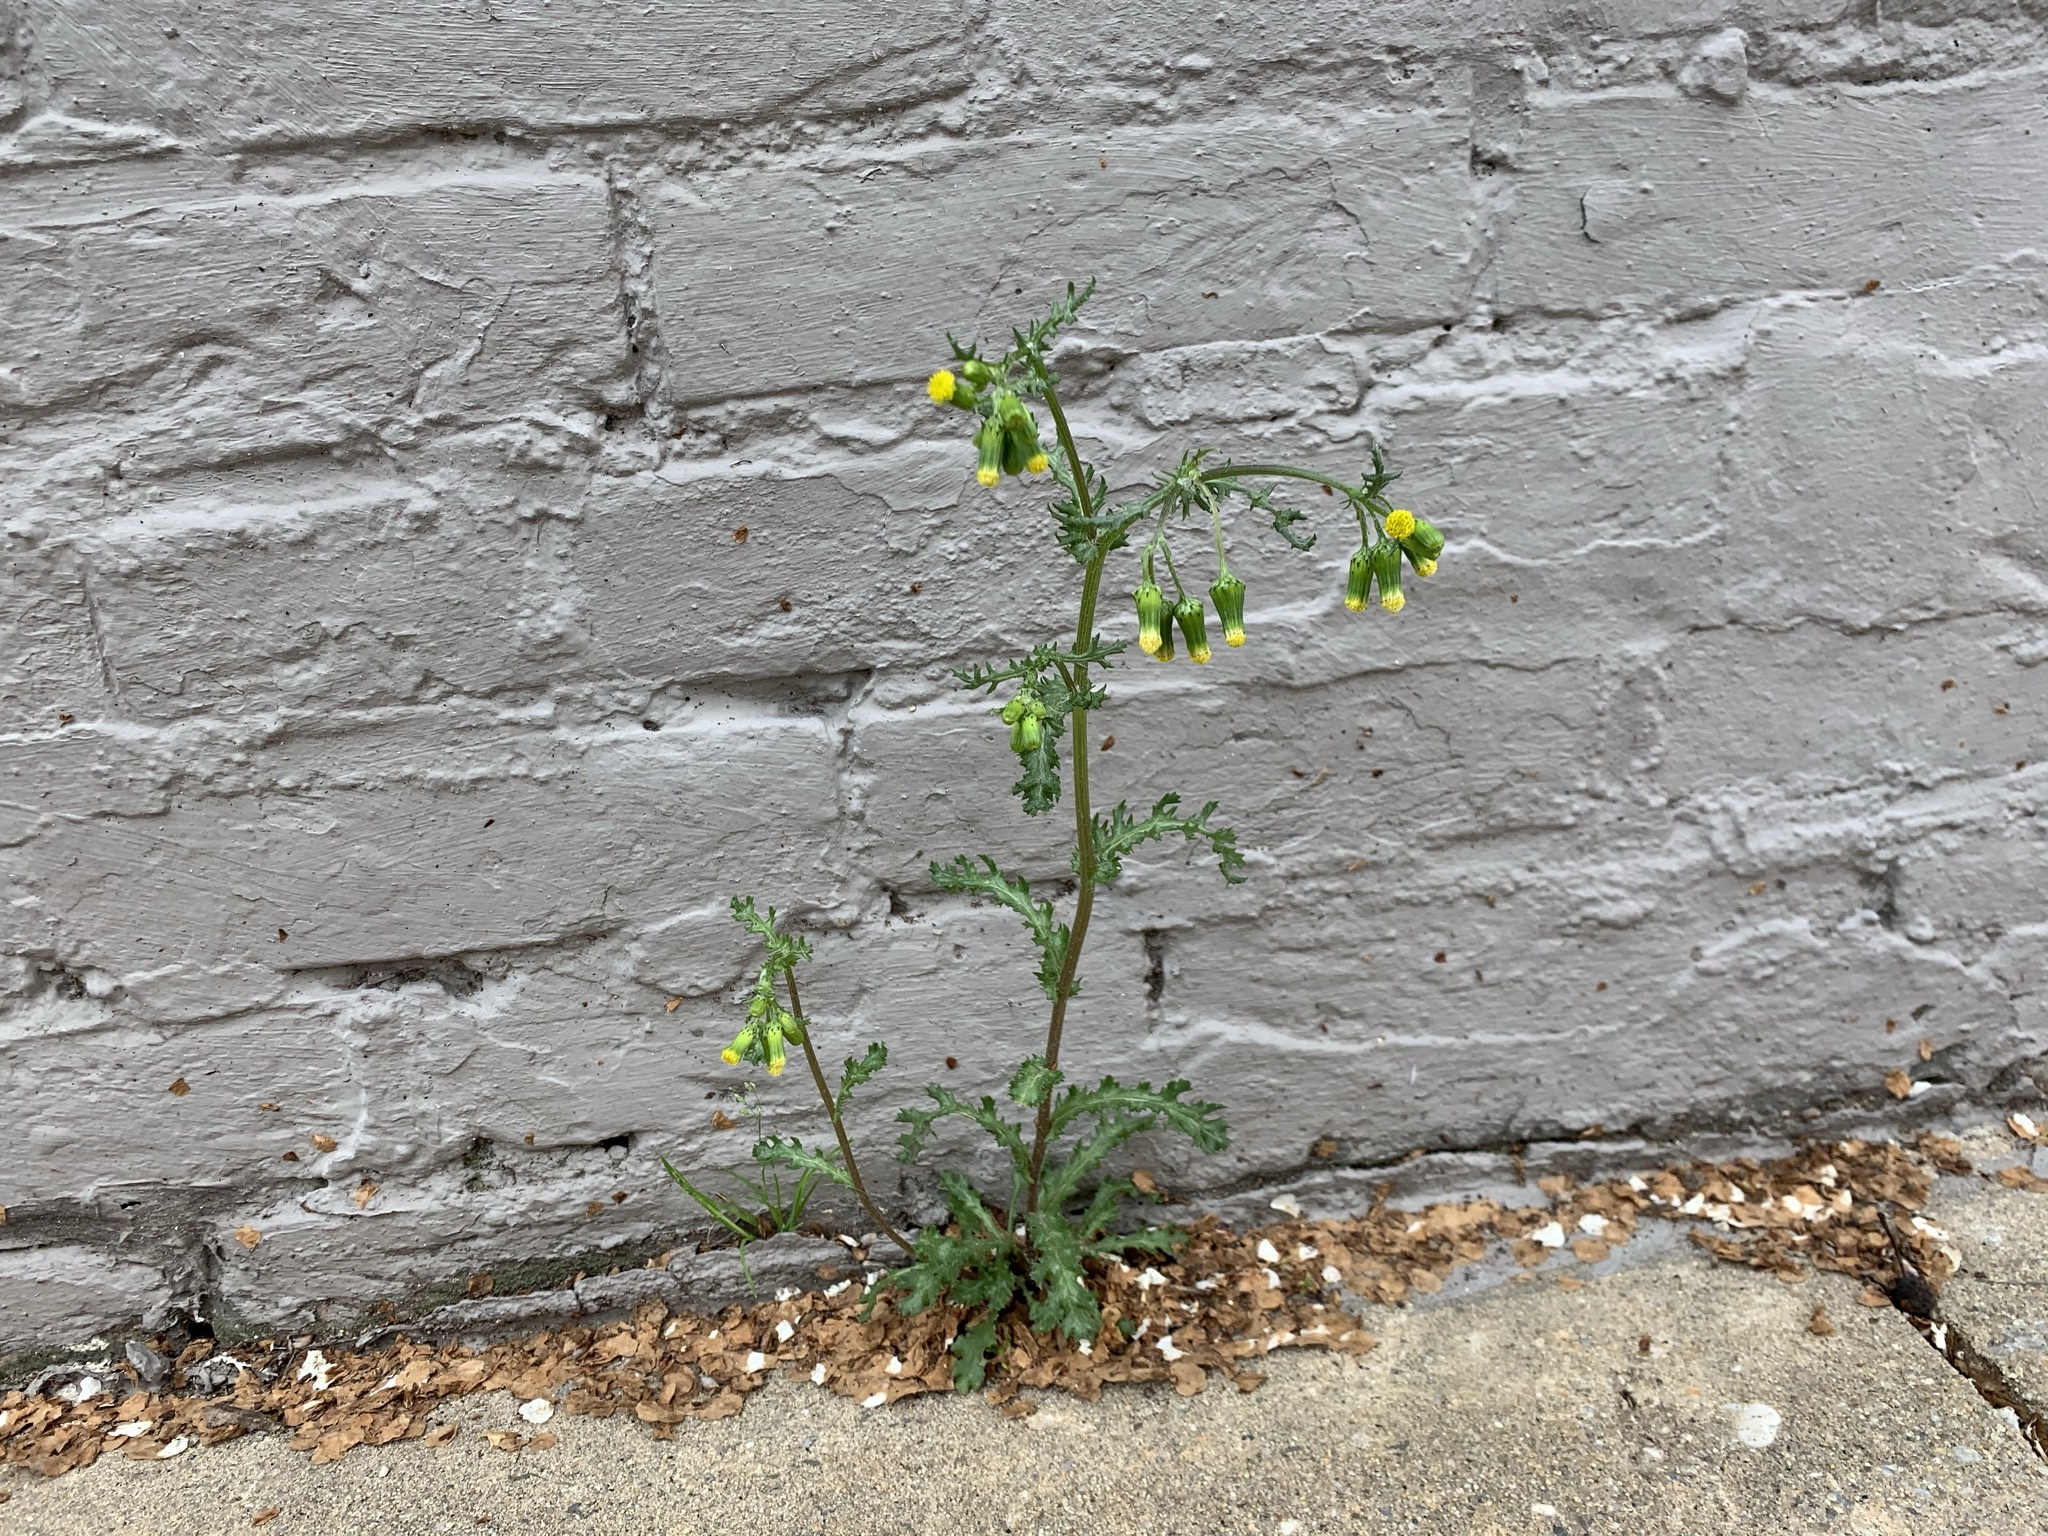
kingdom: Plantae
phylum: Tracheophyta
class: Magnoliopsida
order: Asterales
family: Asteraceae
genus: Senecio
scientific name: Senecio vulgaris
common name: Old-man-in-the-spring
